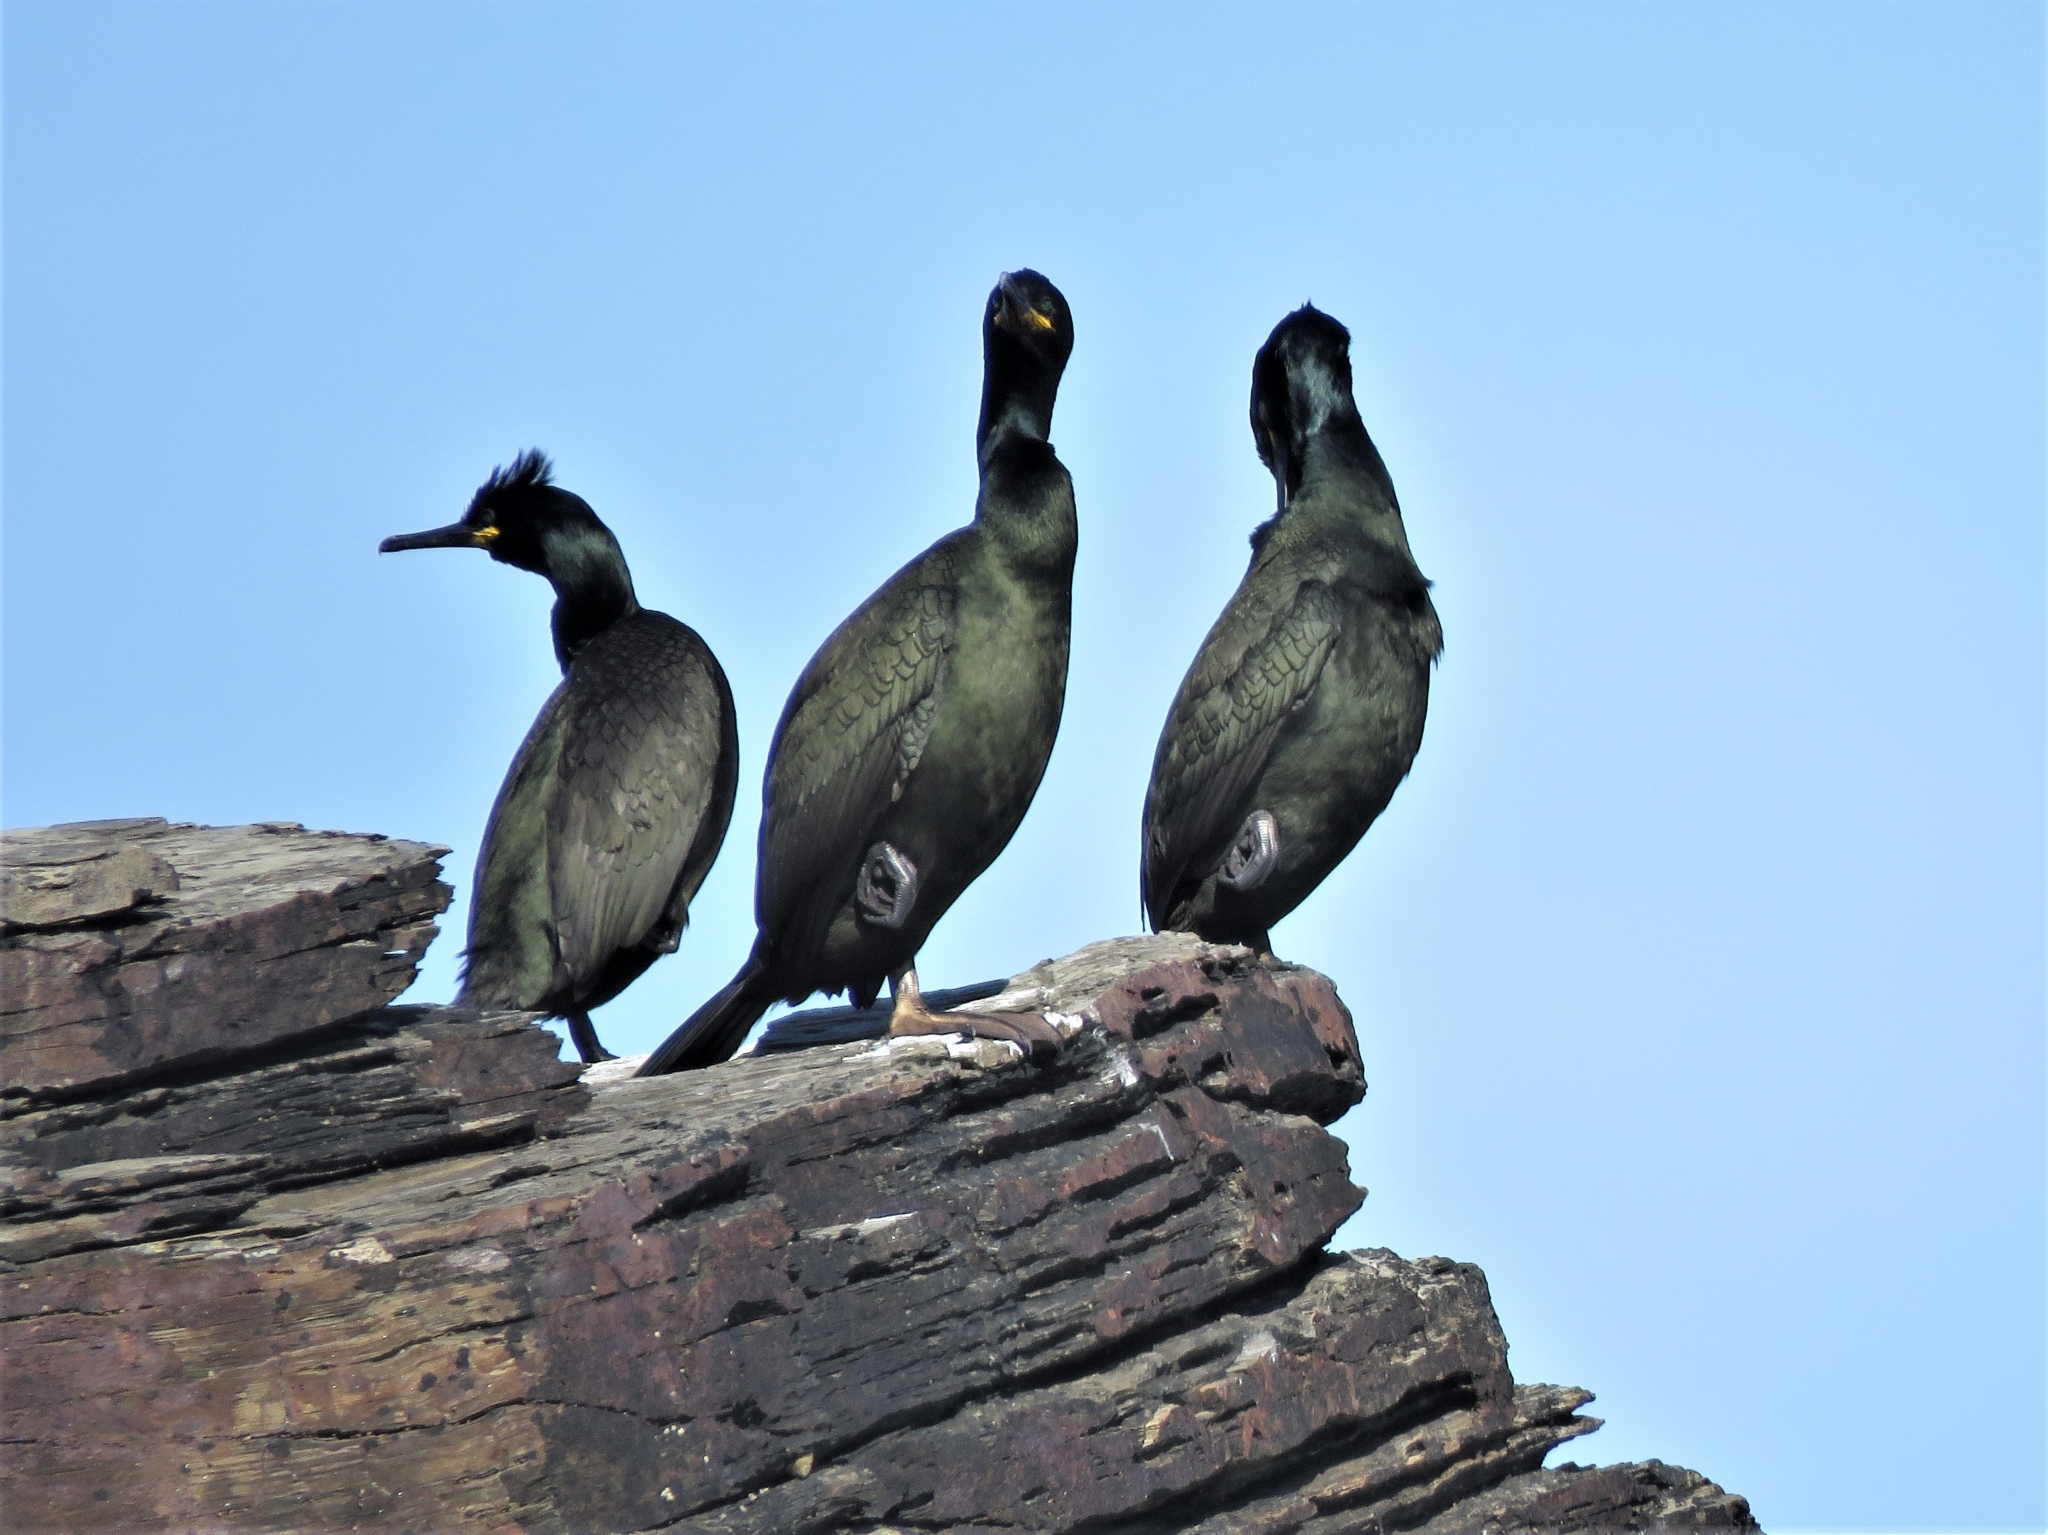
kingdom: Animalia
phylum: Chordata
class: Aves
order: Suliformes
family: Phalacrocoracidae
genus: Phalacrocorax
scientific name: Phalacrocorax aristotelis
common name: European shag
